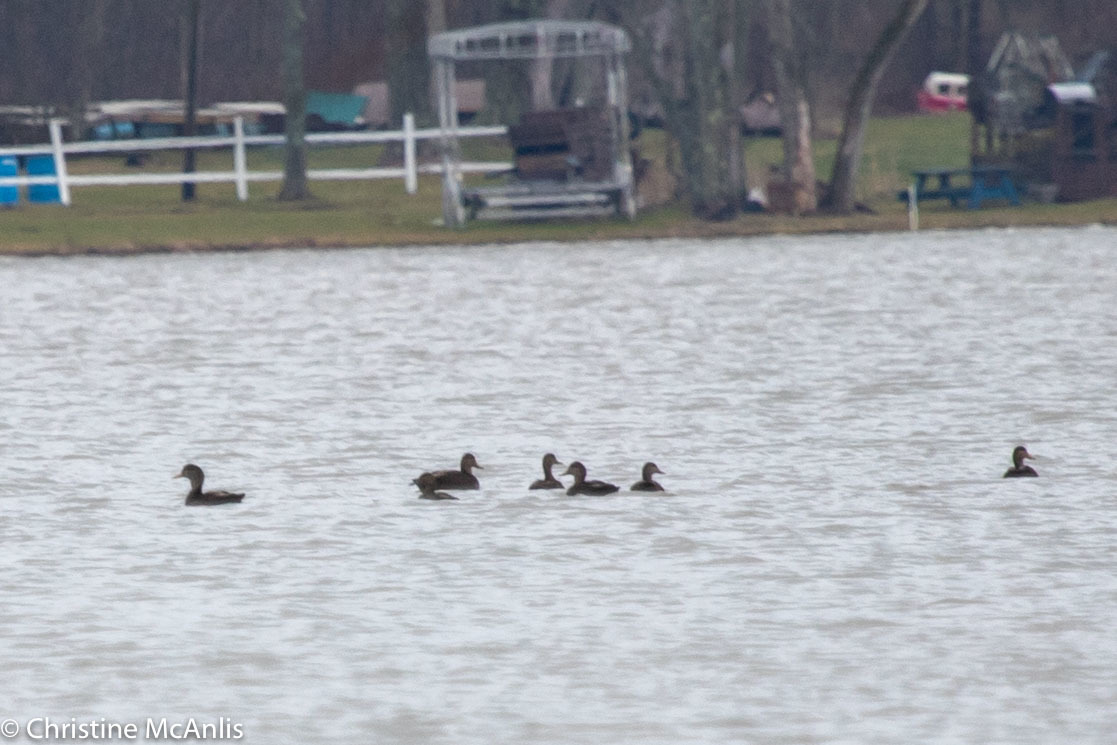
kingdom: Animalia
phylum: Chordata
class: Aves
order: Anseriformes
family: Anatidae
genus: Anas
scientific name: Anas rubripes
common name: American black duck
